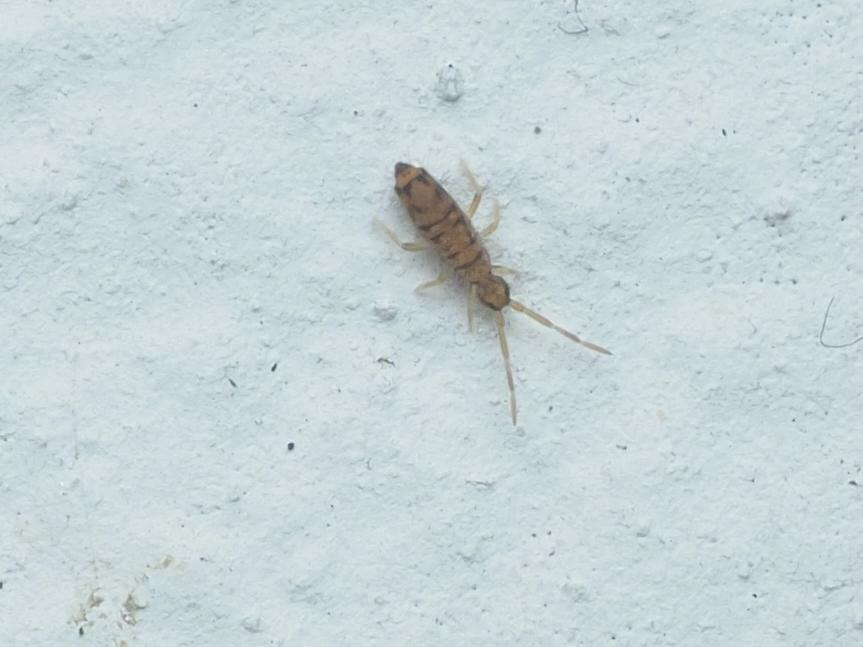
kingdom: Animalia
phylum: Arthropoda
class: Collembola
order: Entomobryomorpha
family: Entomobryidae
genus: Entomobrya
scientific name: Entomobrya multifasciata
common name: Springtail
